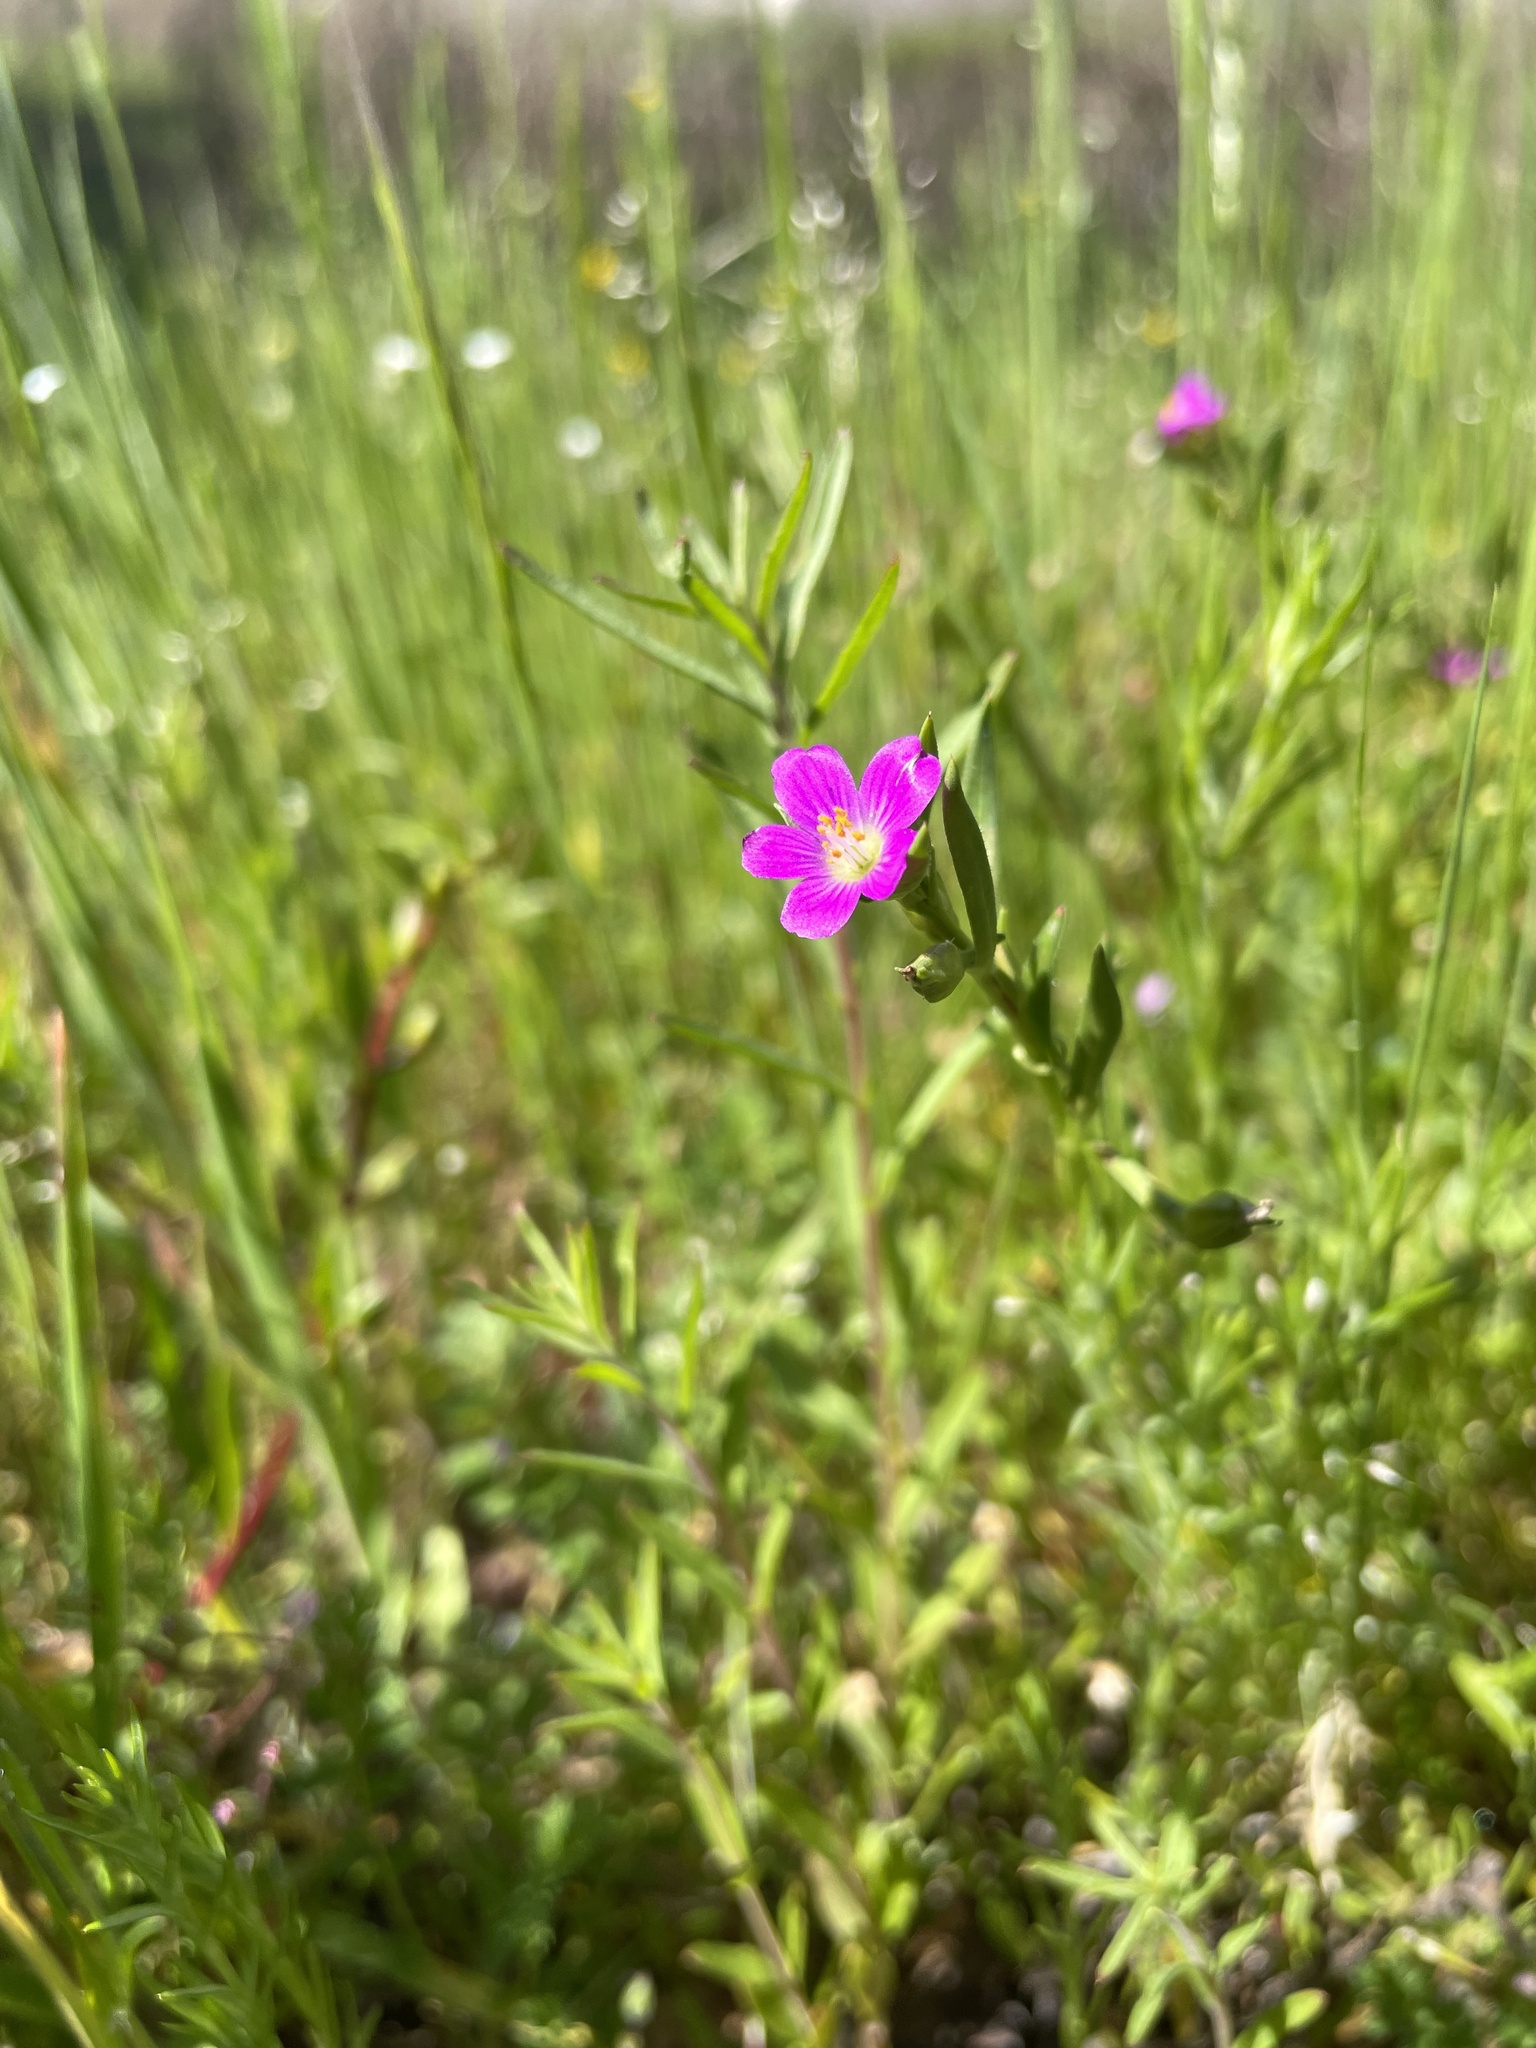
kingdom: Plantae
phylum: Tracheophyta
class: Magnoliopsida
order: Caryophyllales
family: Montiaceae
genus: Calandrinia
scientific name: Calandrinia menziesii
